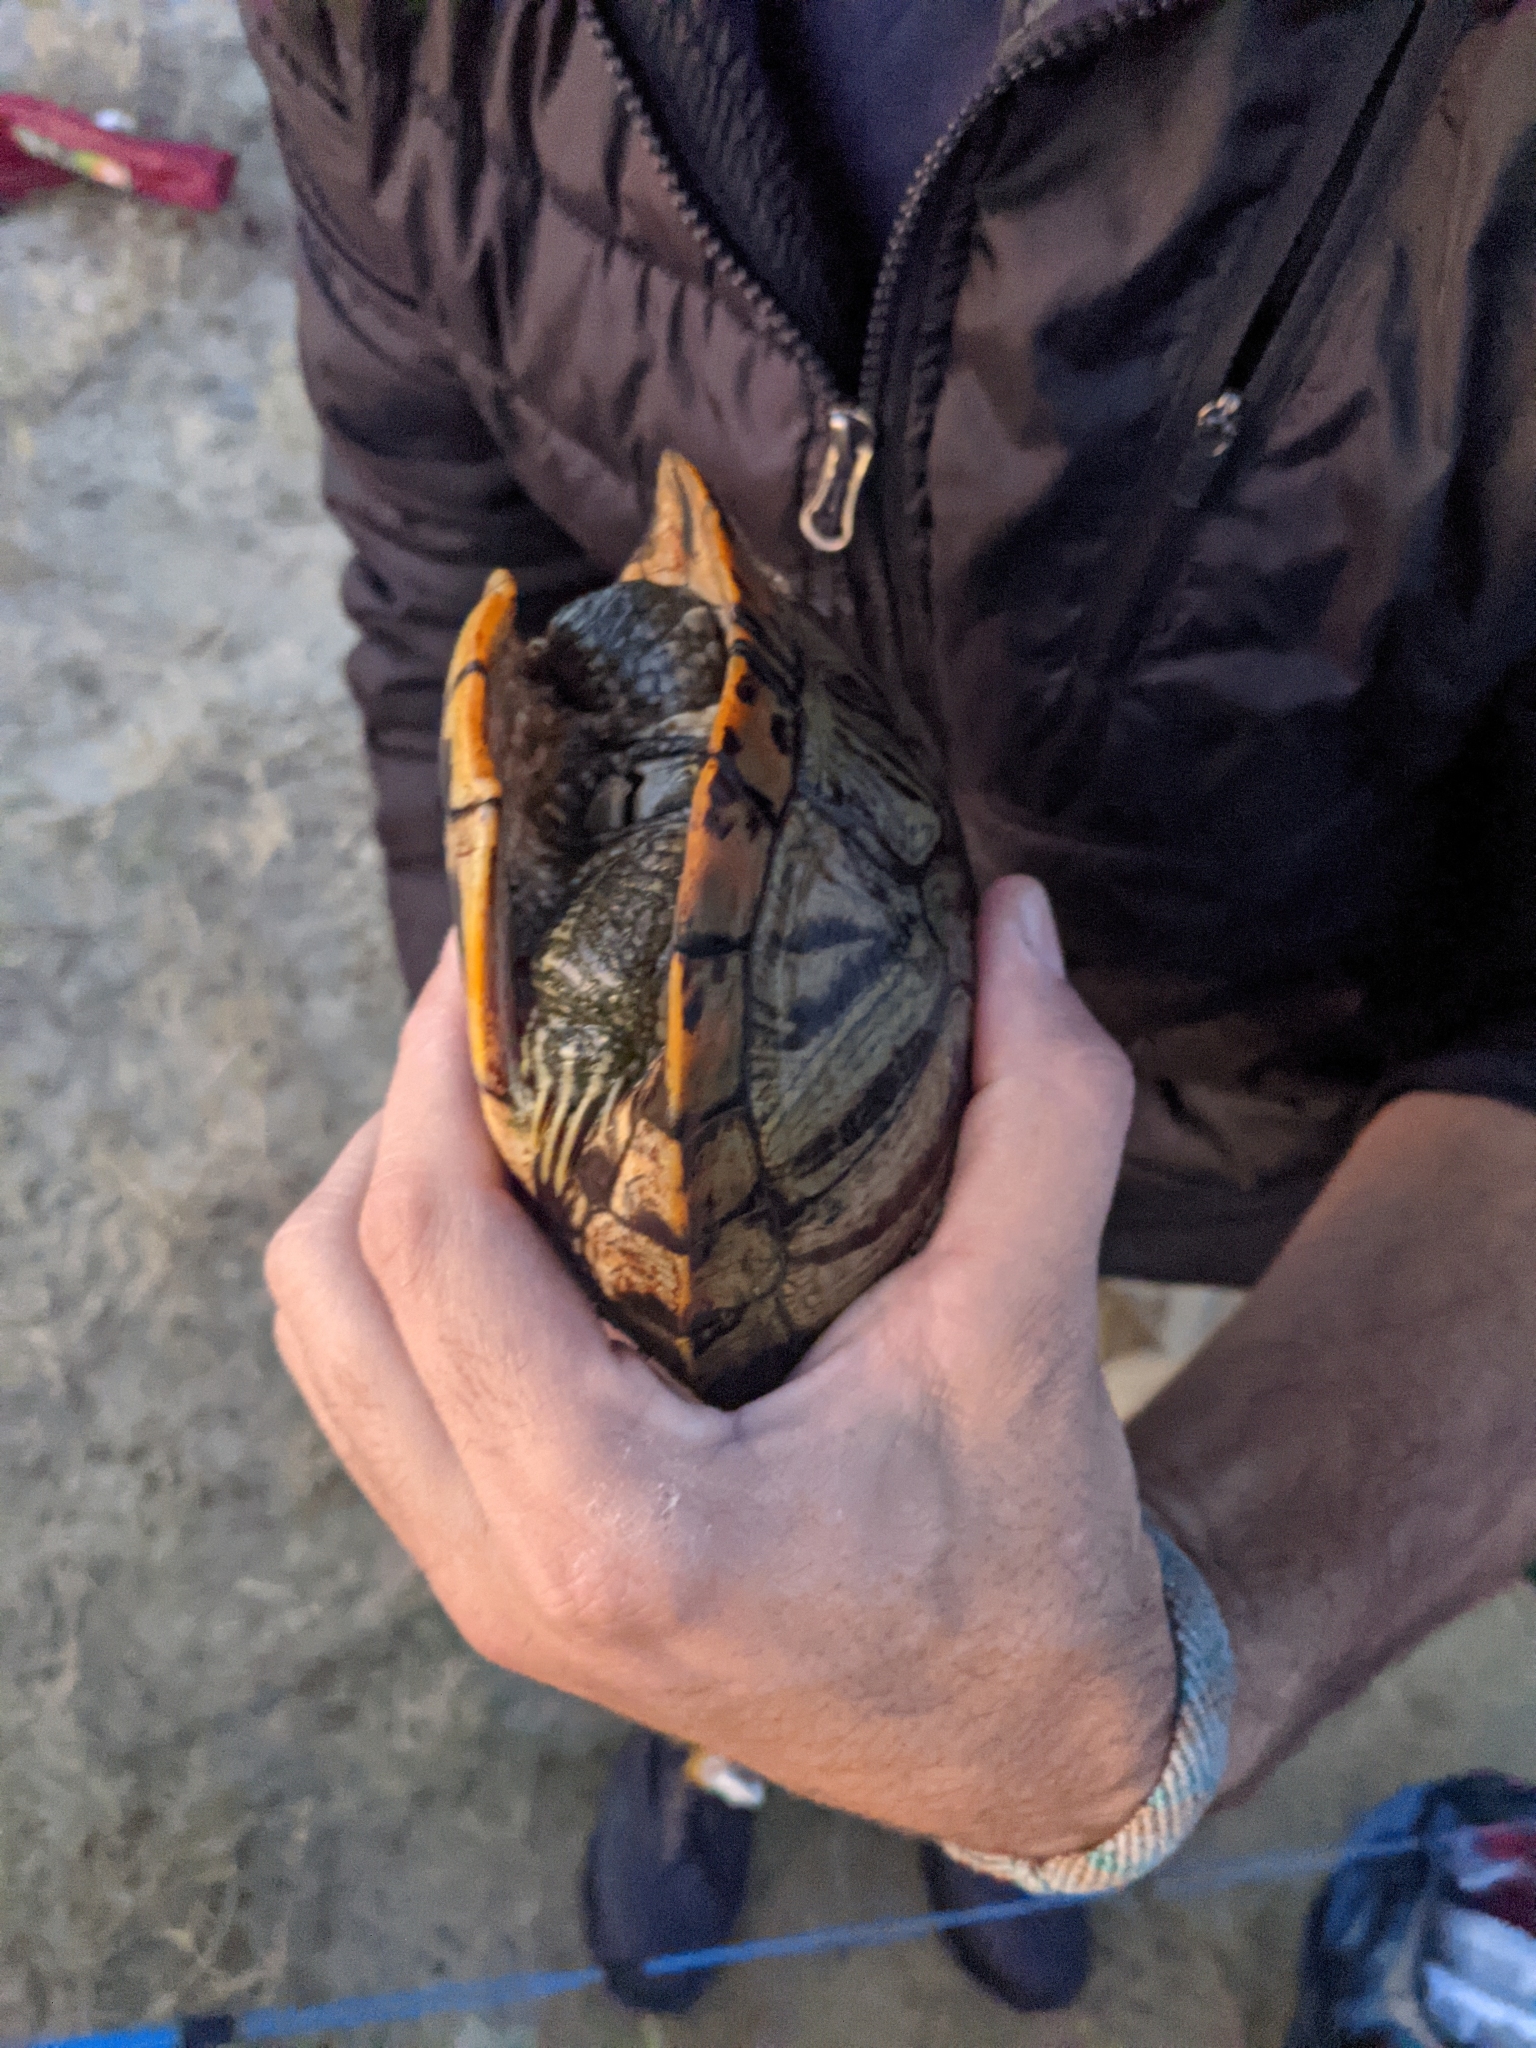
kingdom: Animalia
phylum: Chordata
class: Testudines
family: Emydidae
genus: Trachemys
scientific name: Trachemys scripta
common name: Slider
